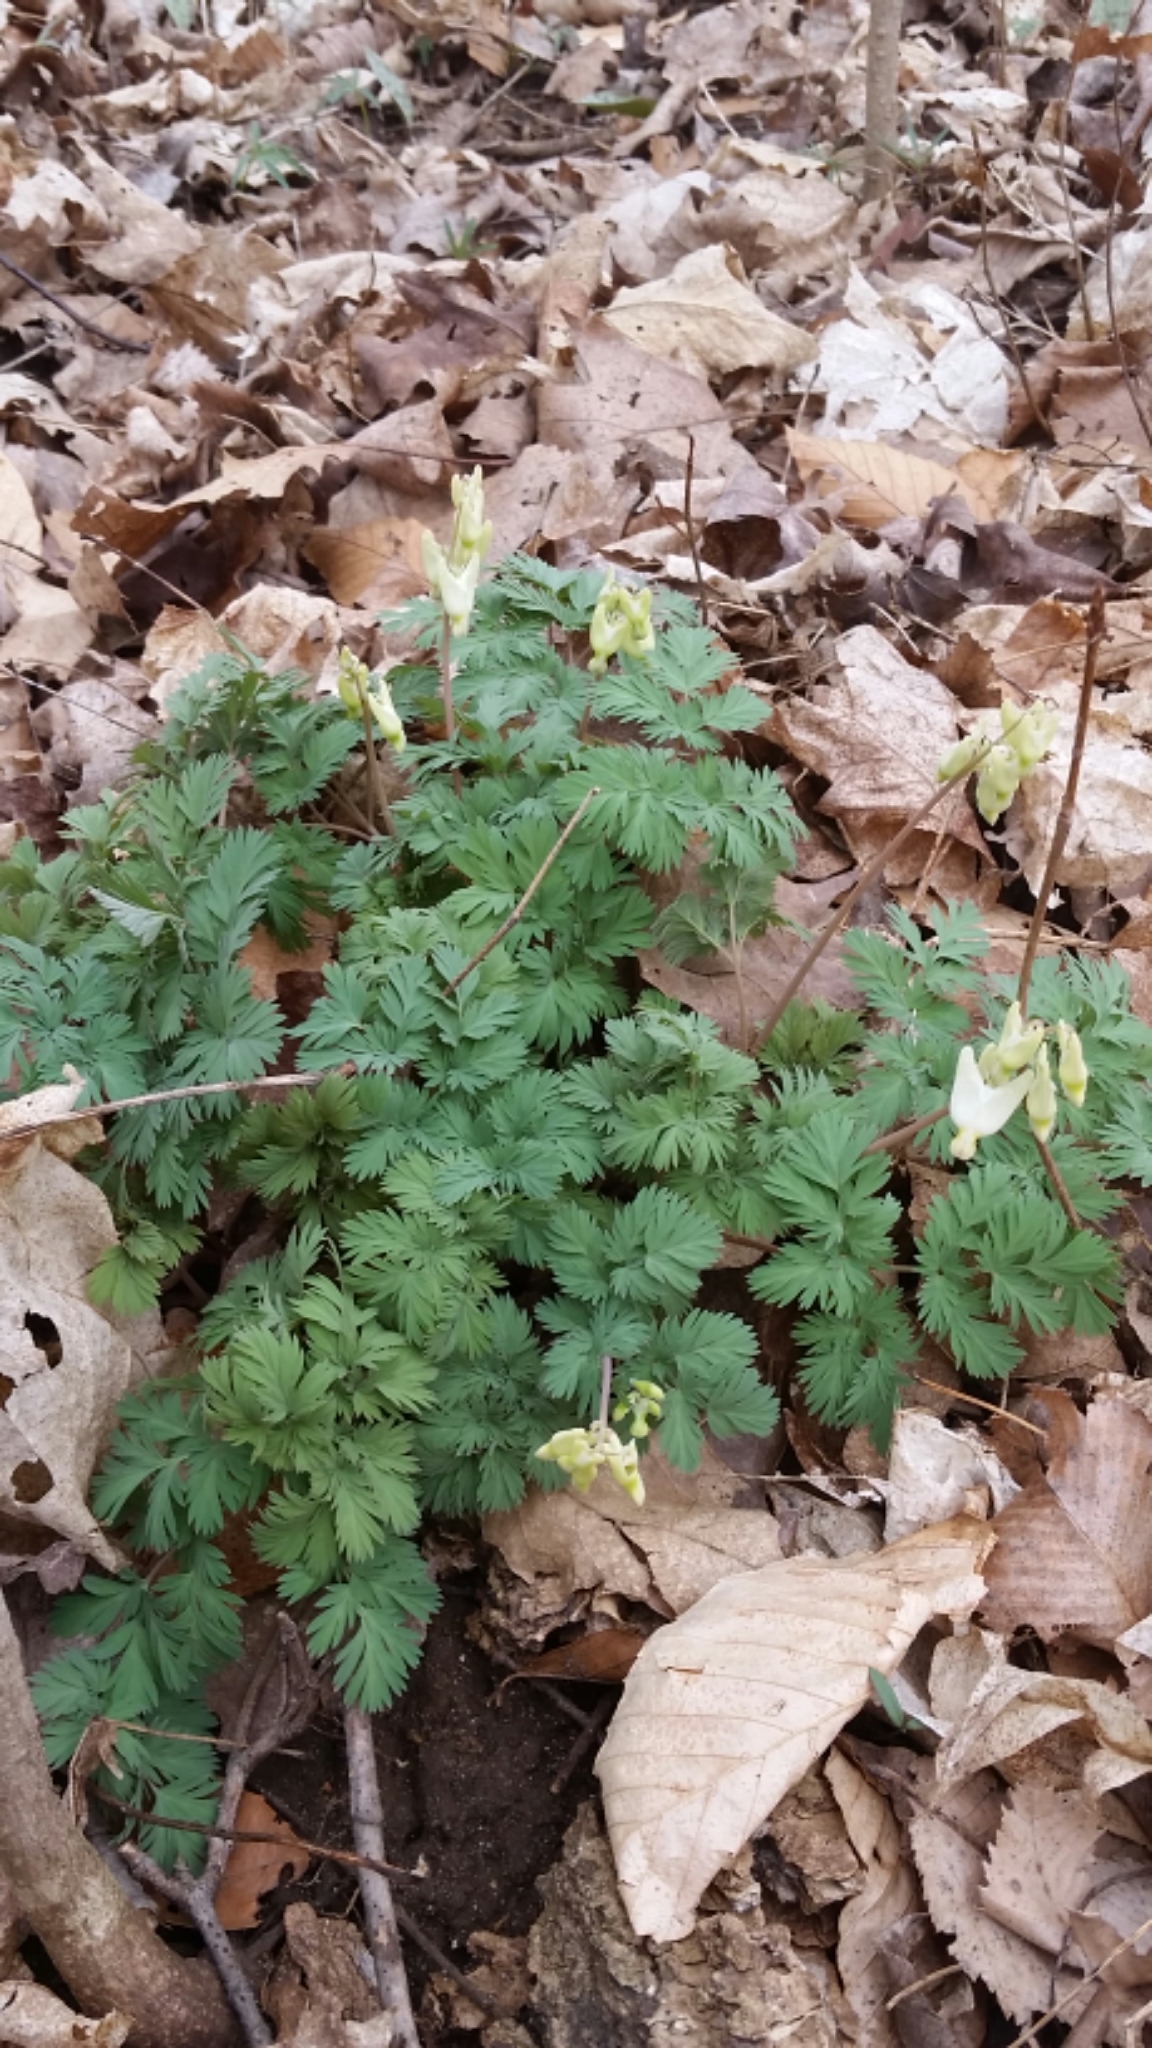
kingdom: Plantae
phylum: Tracheophyta
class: Magnoliopsida
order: Ranunculales
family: Papaveraceae
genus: Dicentra
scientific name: Dicentra cucullaria
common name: Dutchman's breeches
